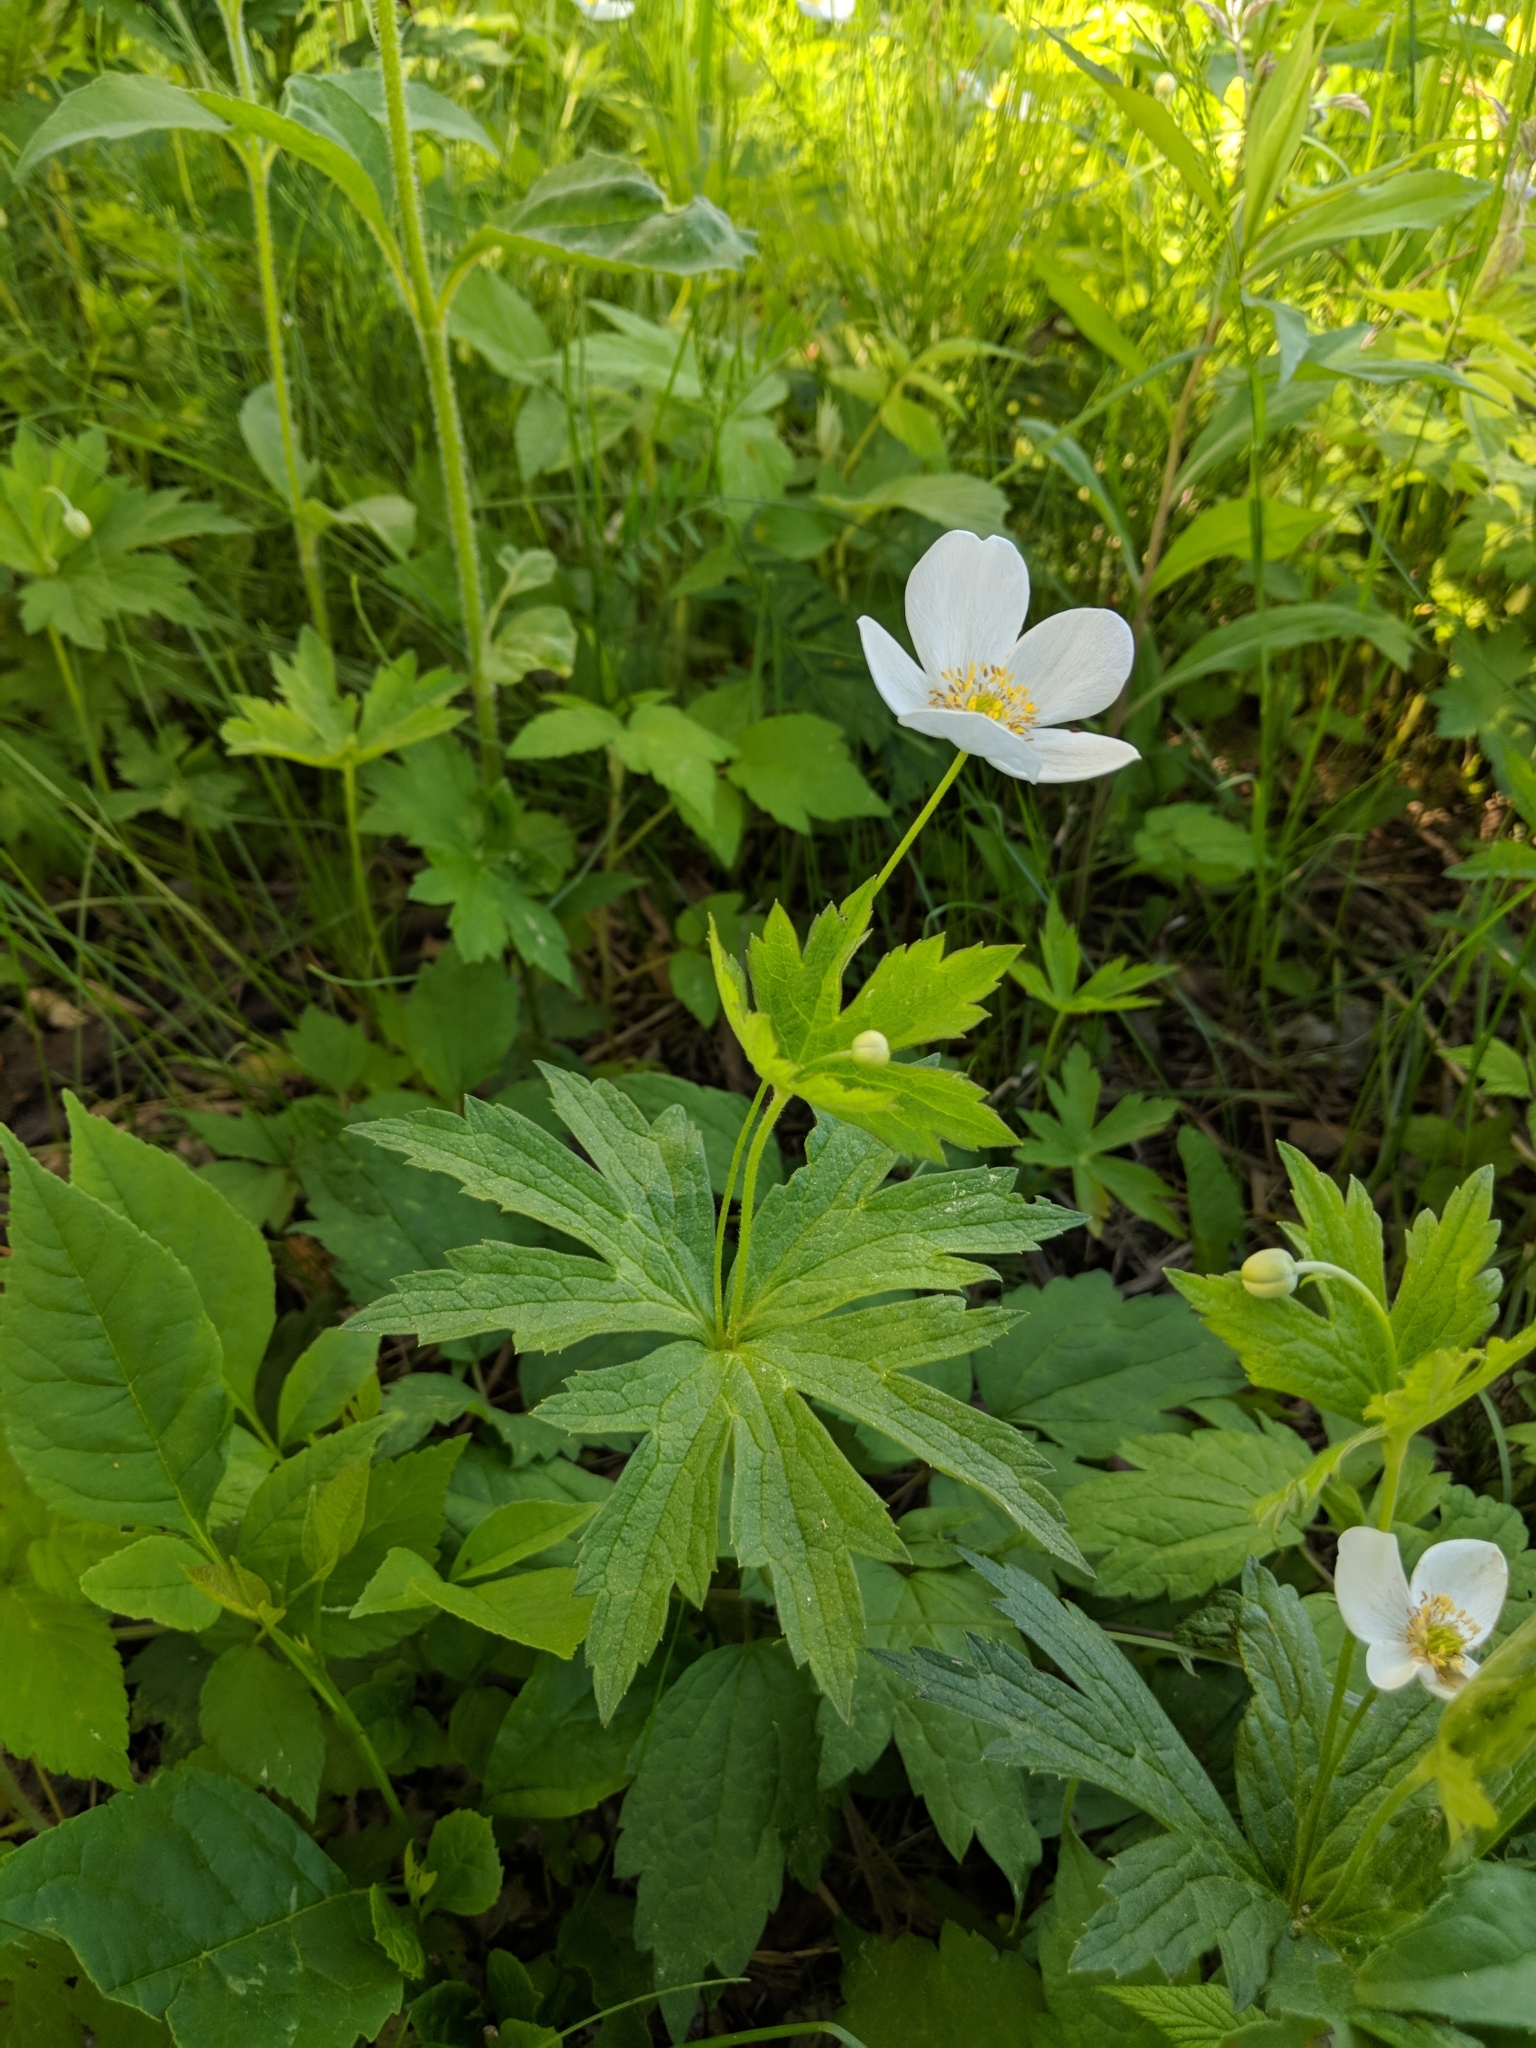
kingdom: Plantae
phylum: Tracheophyta
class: Magnoliopsida
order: Ranunculales
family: Ranunculaceae
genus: Anemonastrum
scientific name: Anemonastrum canadense
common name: Canada anemone
